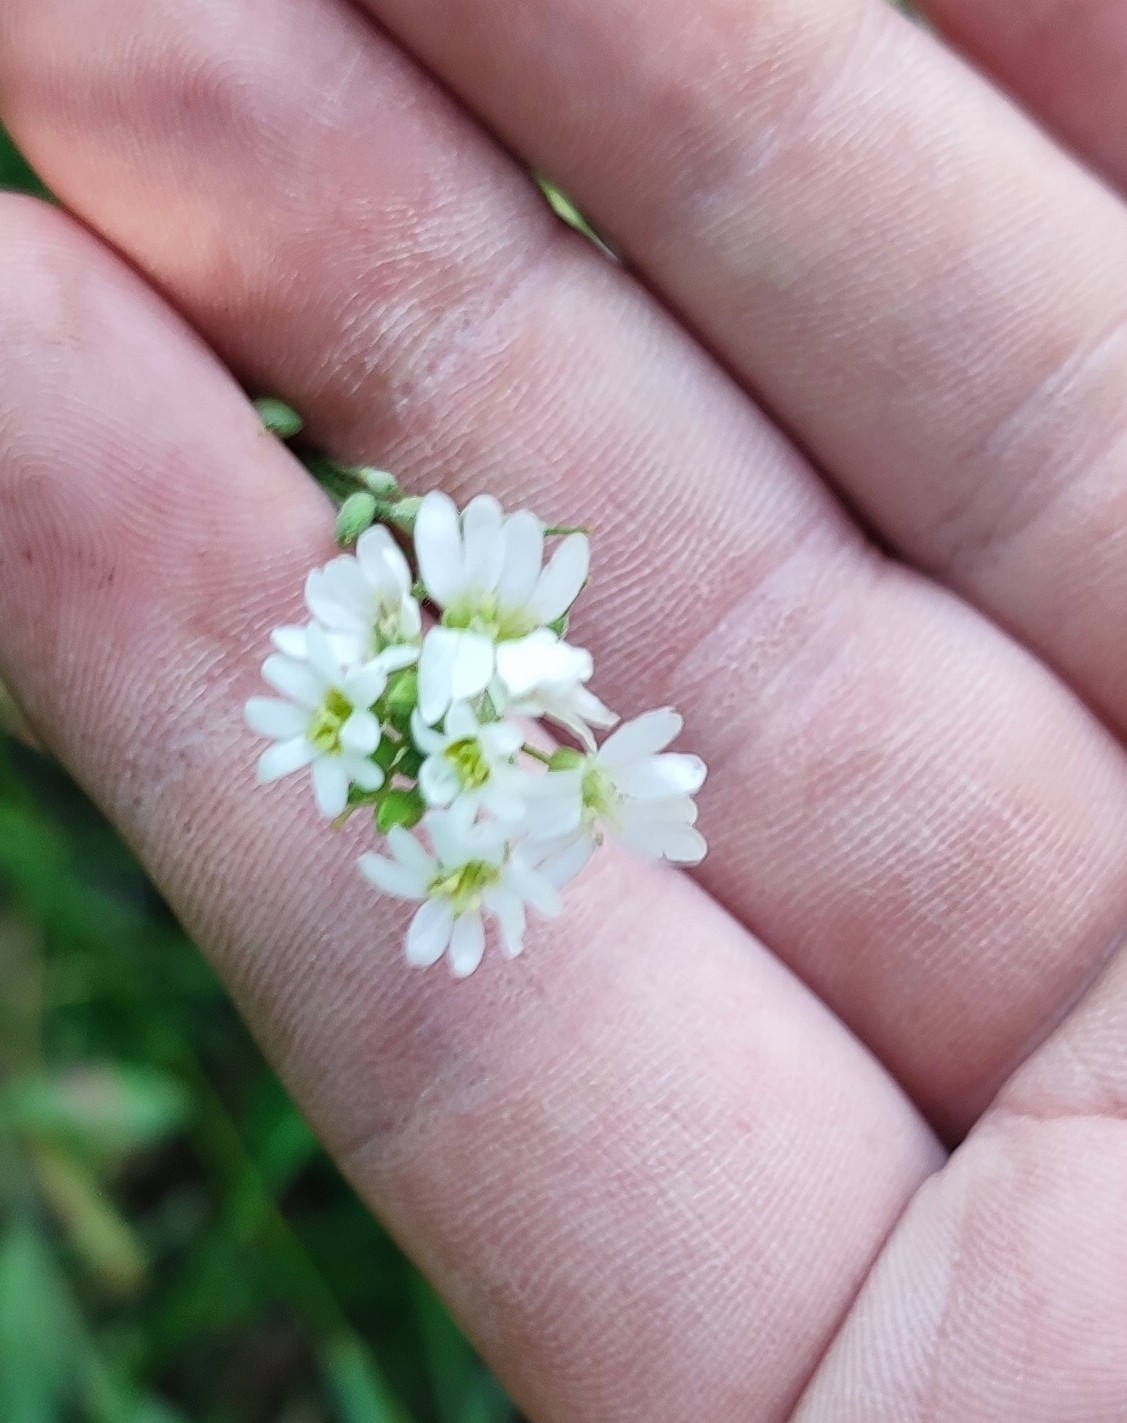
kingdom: Plantae
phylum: Tracheophyta
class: Magnoliopsida
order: Brassicales
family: Brassicaceae
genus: Berteroa
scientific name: Berteroa incana
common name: Hoary alison
